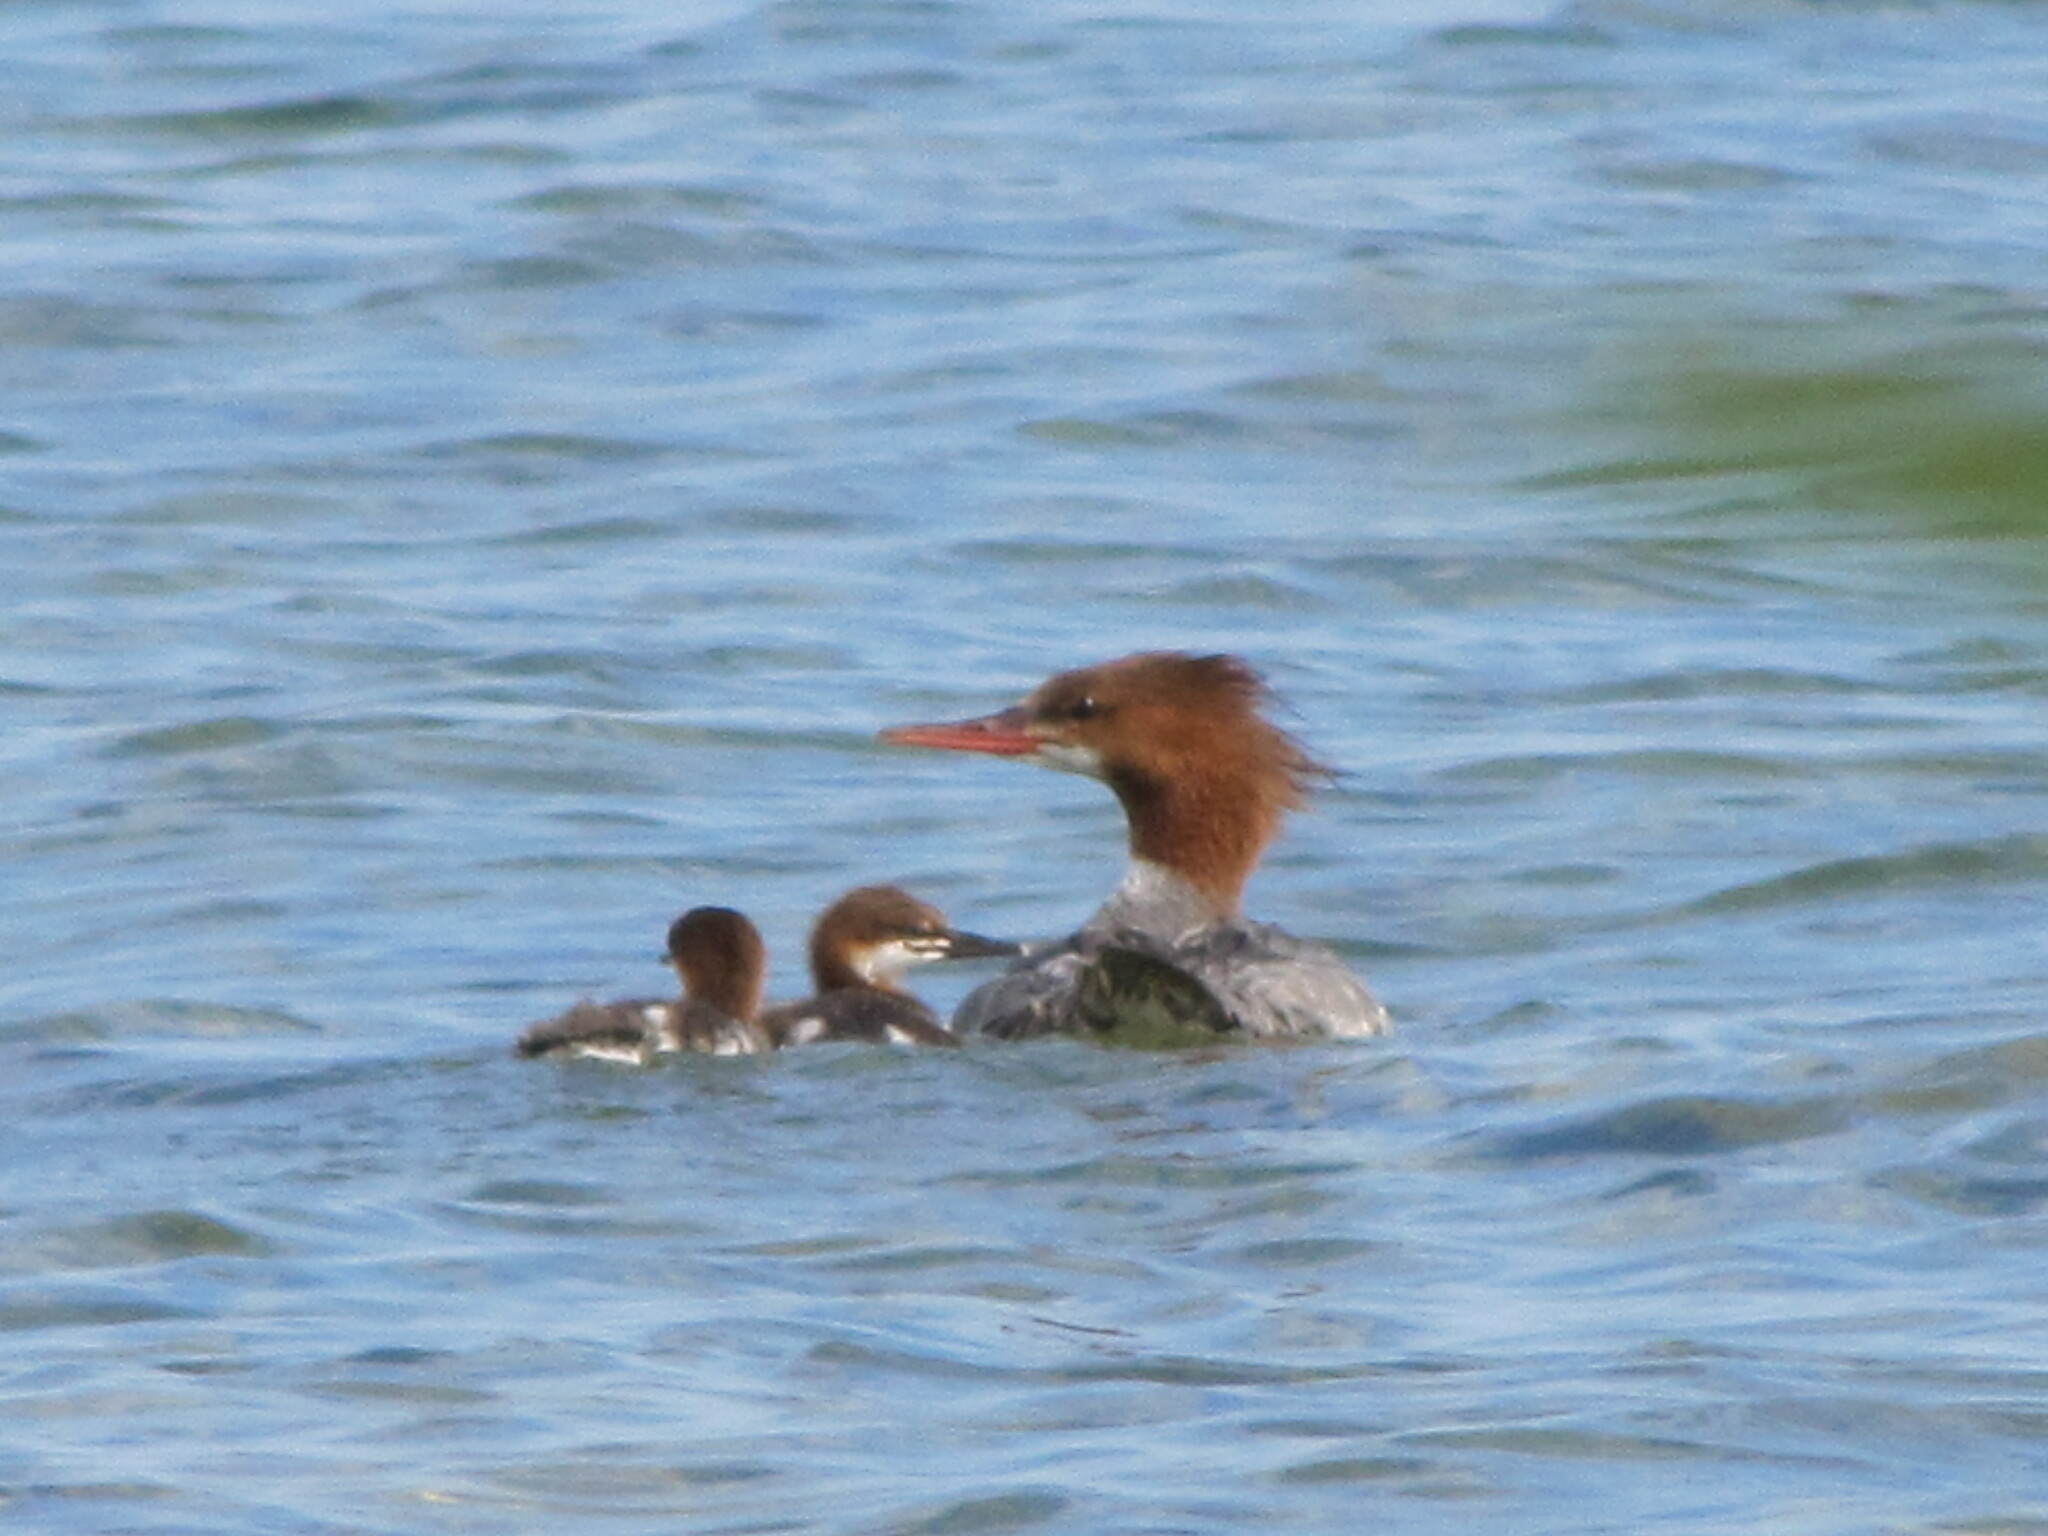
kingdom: Animalia
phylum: Chordata
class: Aves
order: Anseriformes
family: Anatidae
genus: Mergus
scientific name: Mergus merganser
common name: Common merganser
